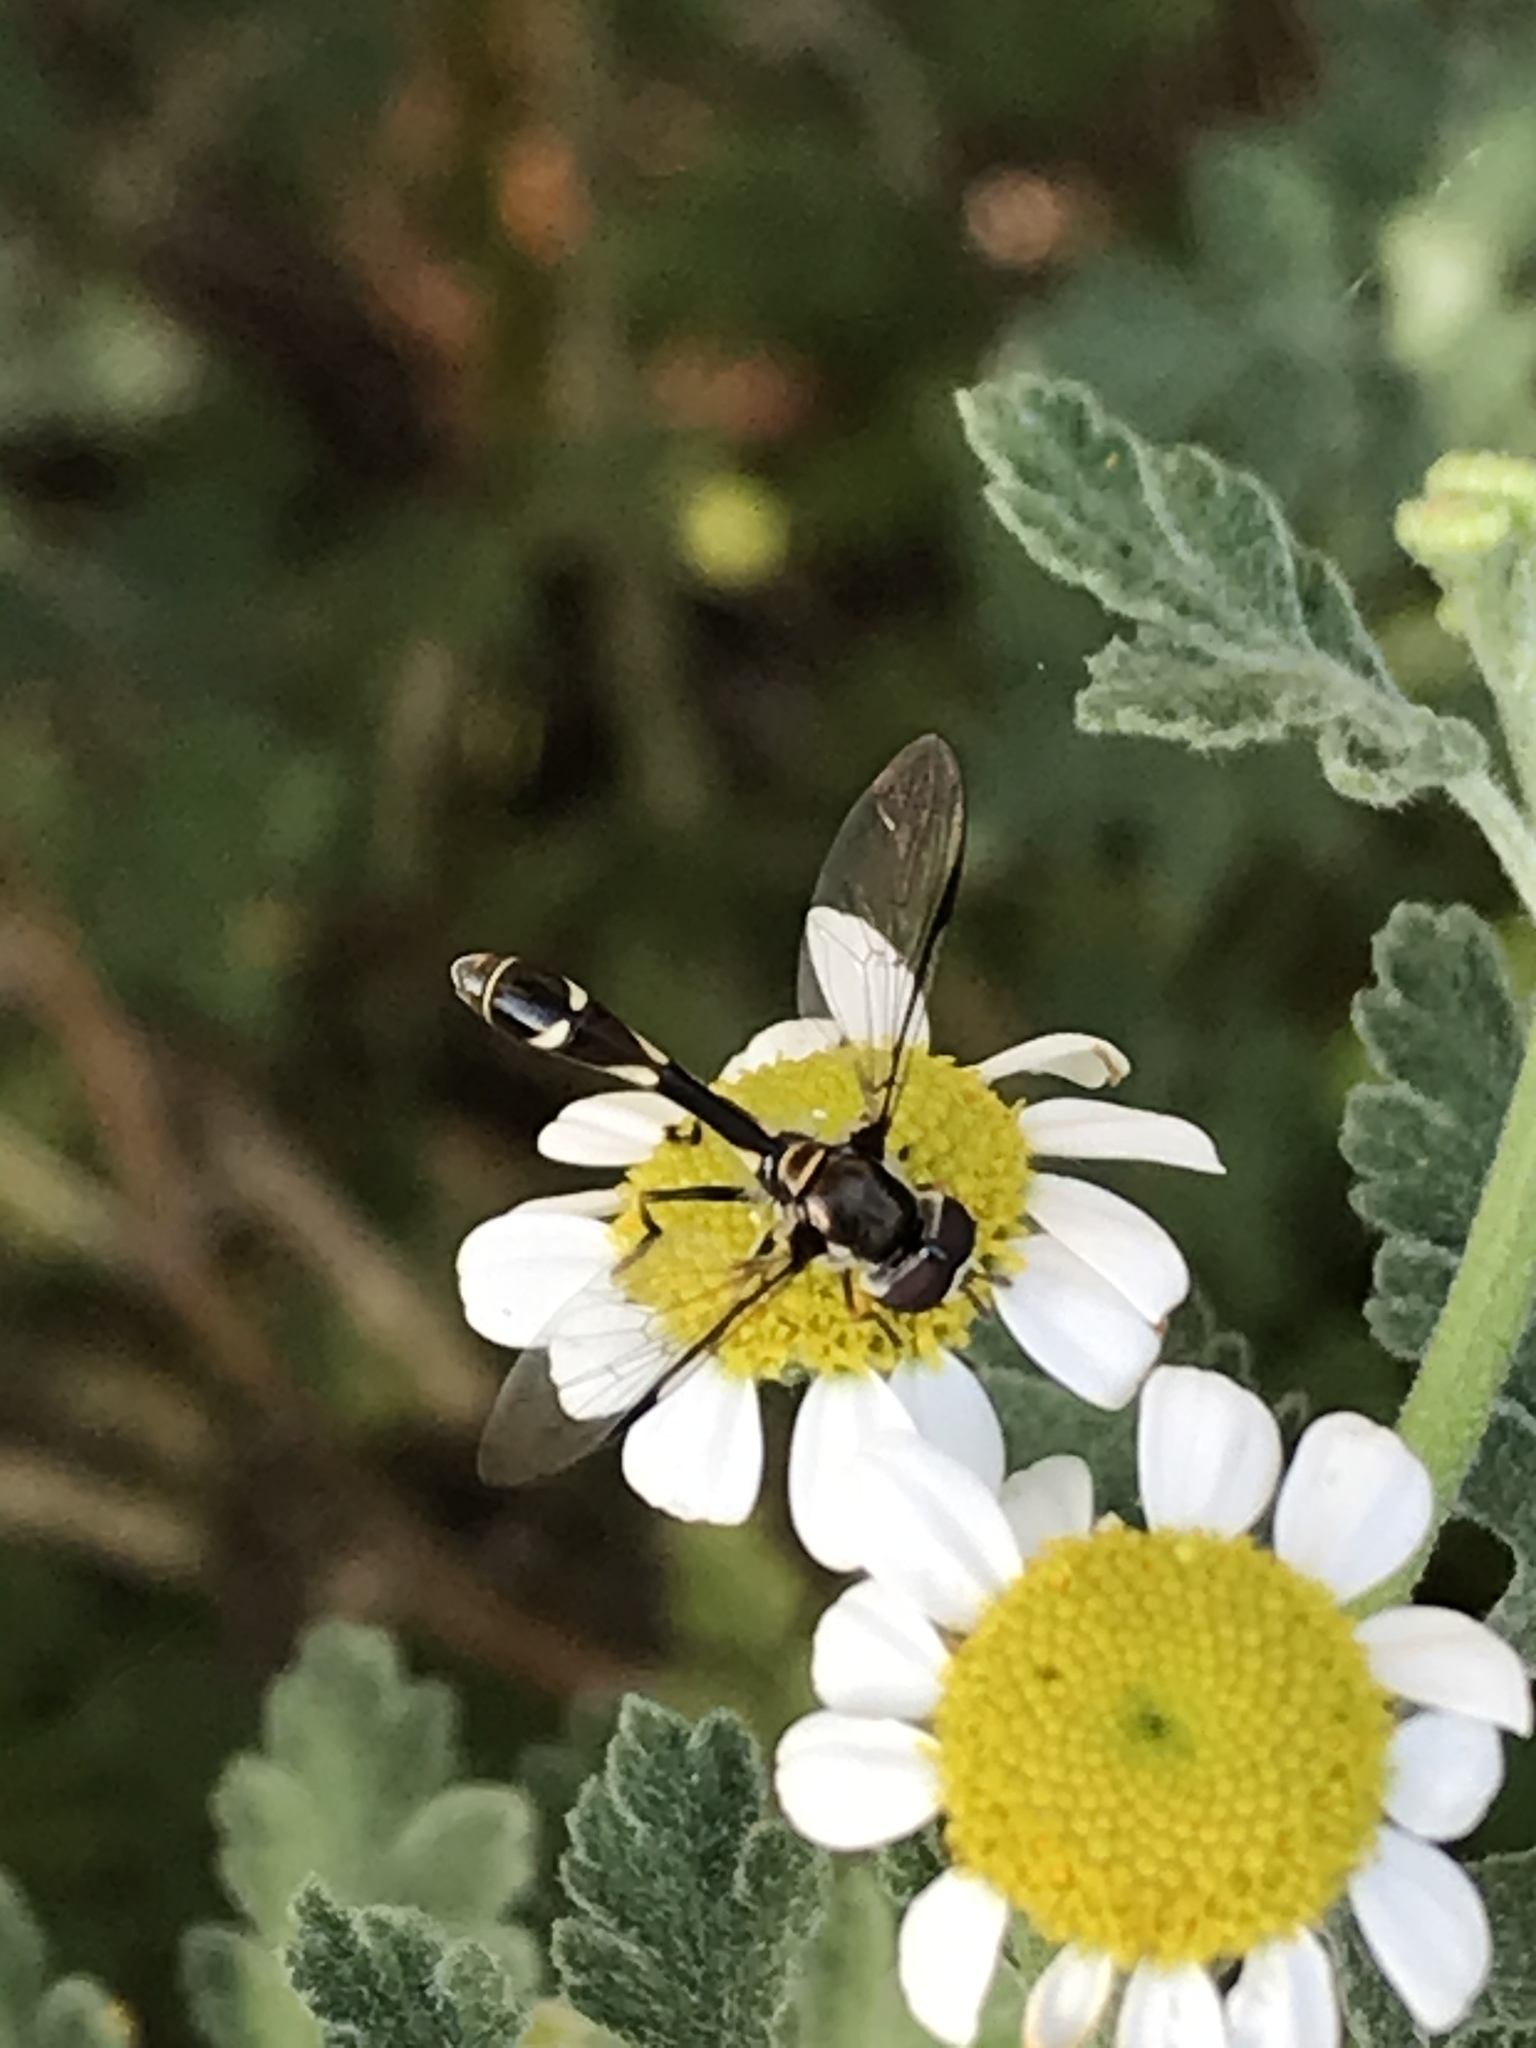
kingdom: Animalia
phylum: Arthropoda
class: Insecta
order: Diptera
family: Syrphidae
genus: Dioprosopa
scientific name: Dioprosopa clavatus
